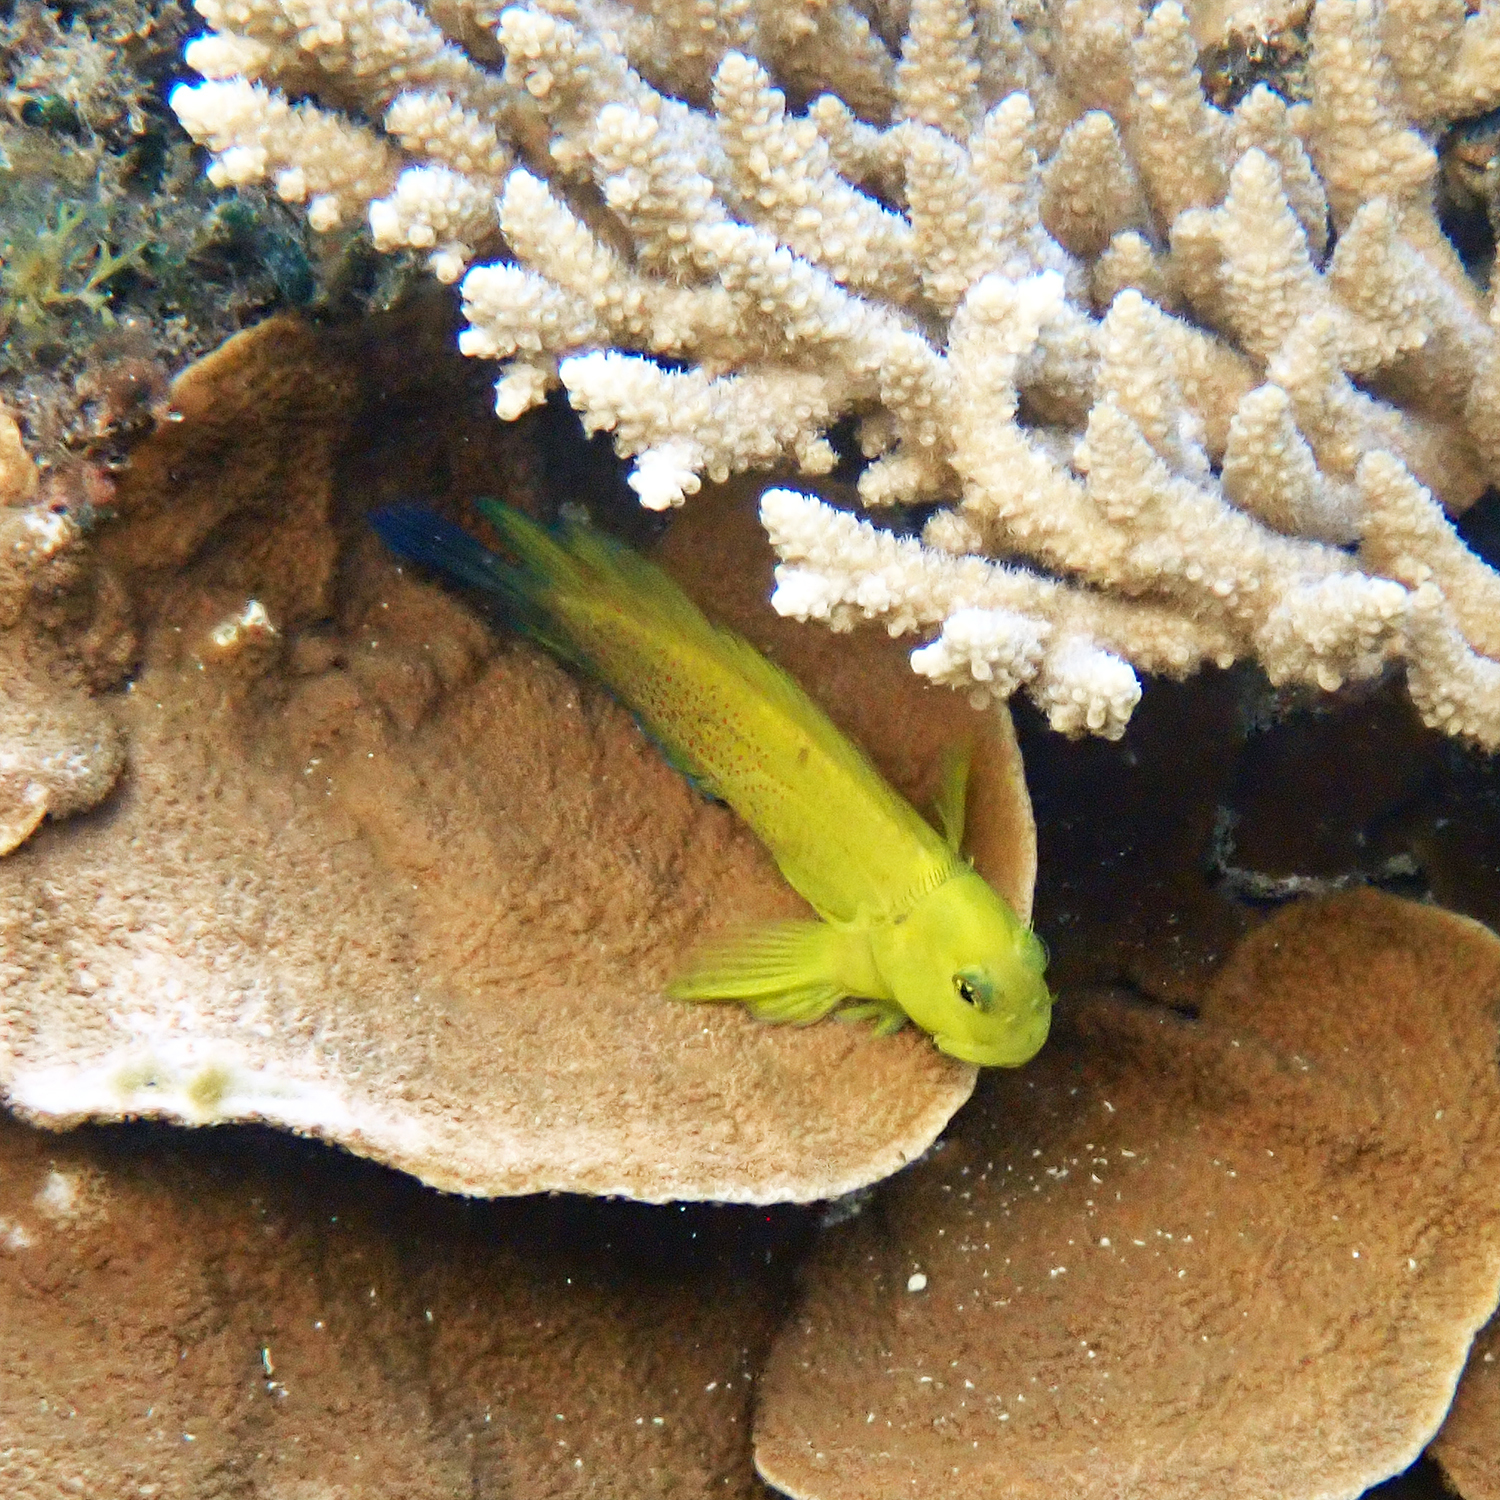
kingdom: Animalia
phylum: Chordata
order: Perciformes
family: Blenniidae
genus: Cirripectes
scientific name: Cirripectes chelomatus
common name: Lady musgrave blenny
